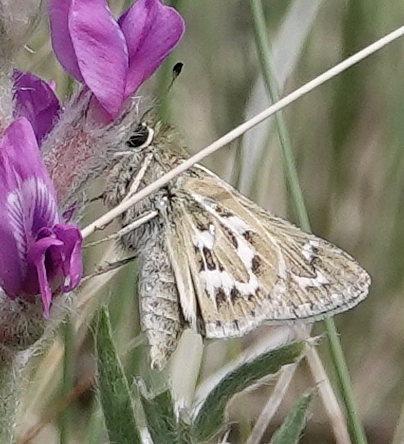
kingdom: Animalia
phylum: Arthropoda
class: Insecta
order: Lepidoptera
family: Hesperiidae
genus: Hesperia
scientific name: Hesperia uncas
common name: Uncas skipper
